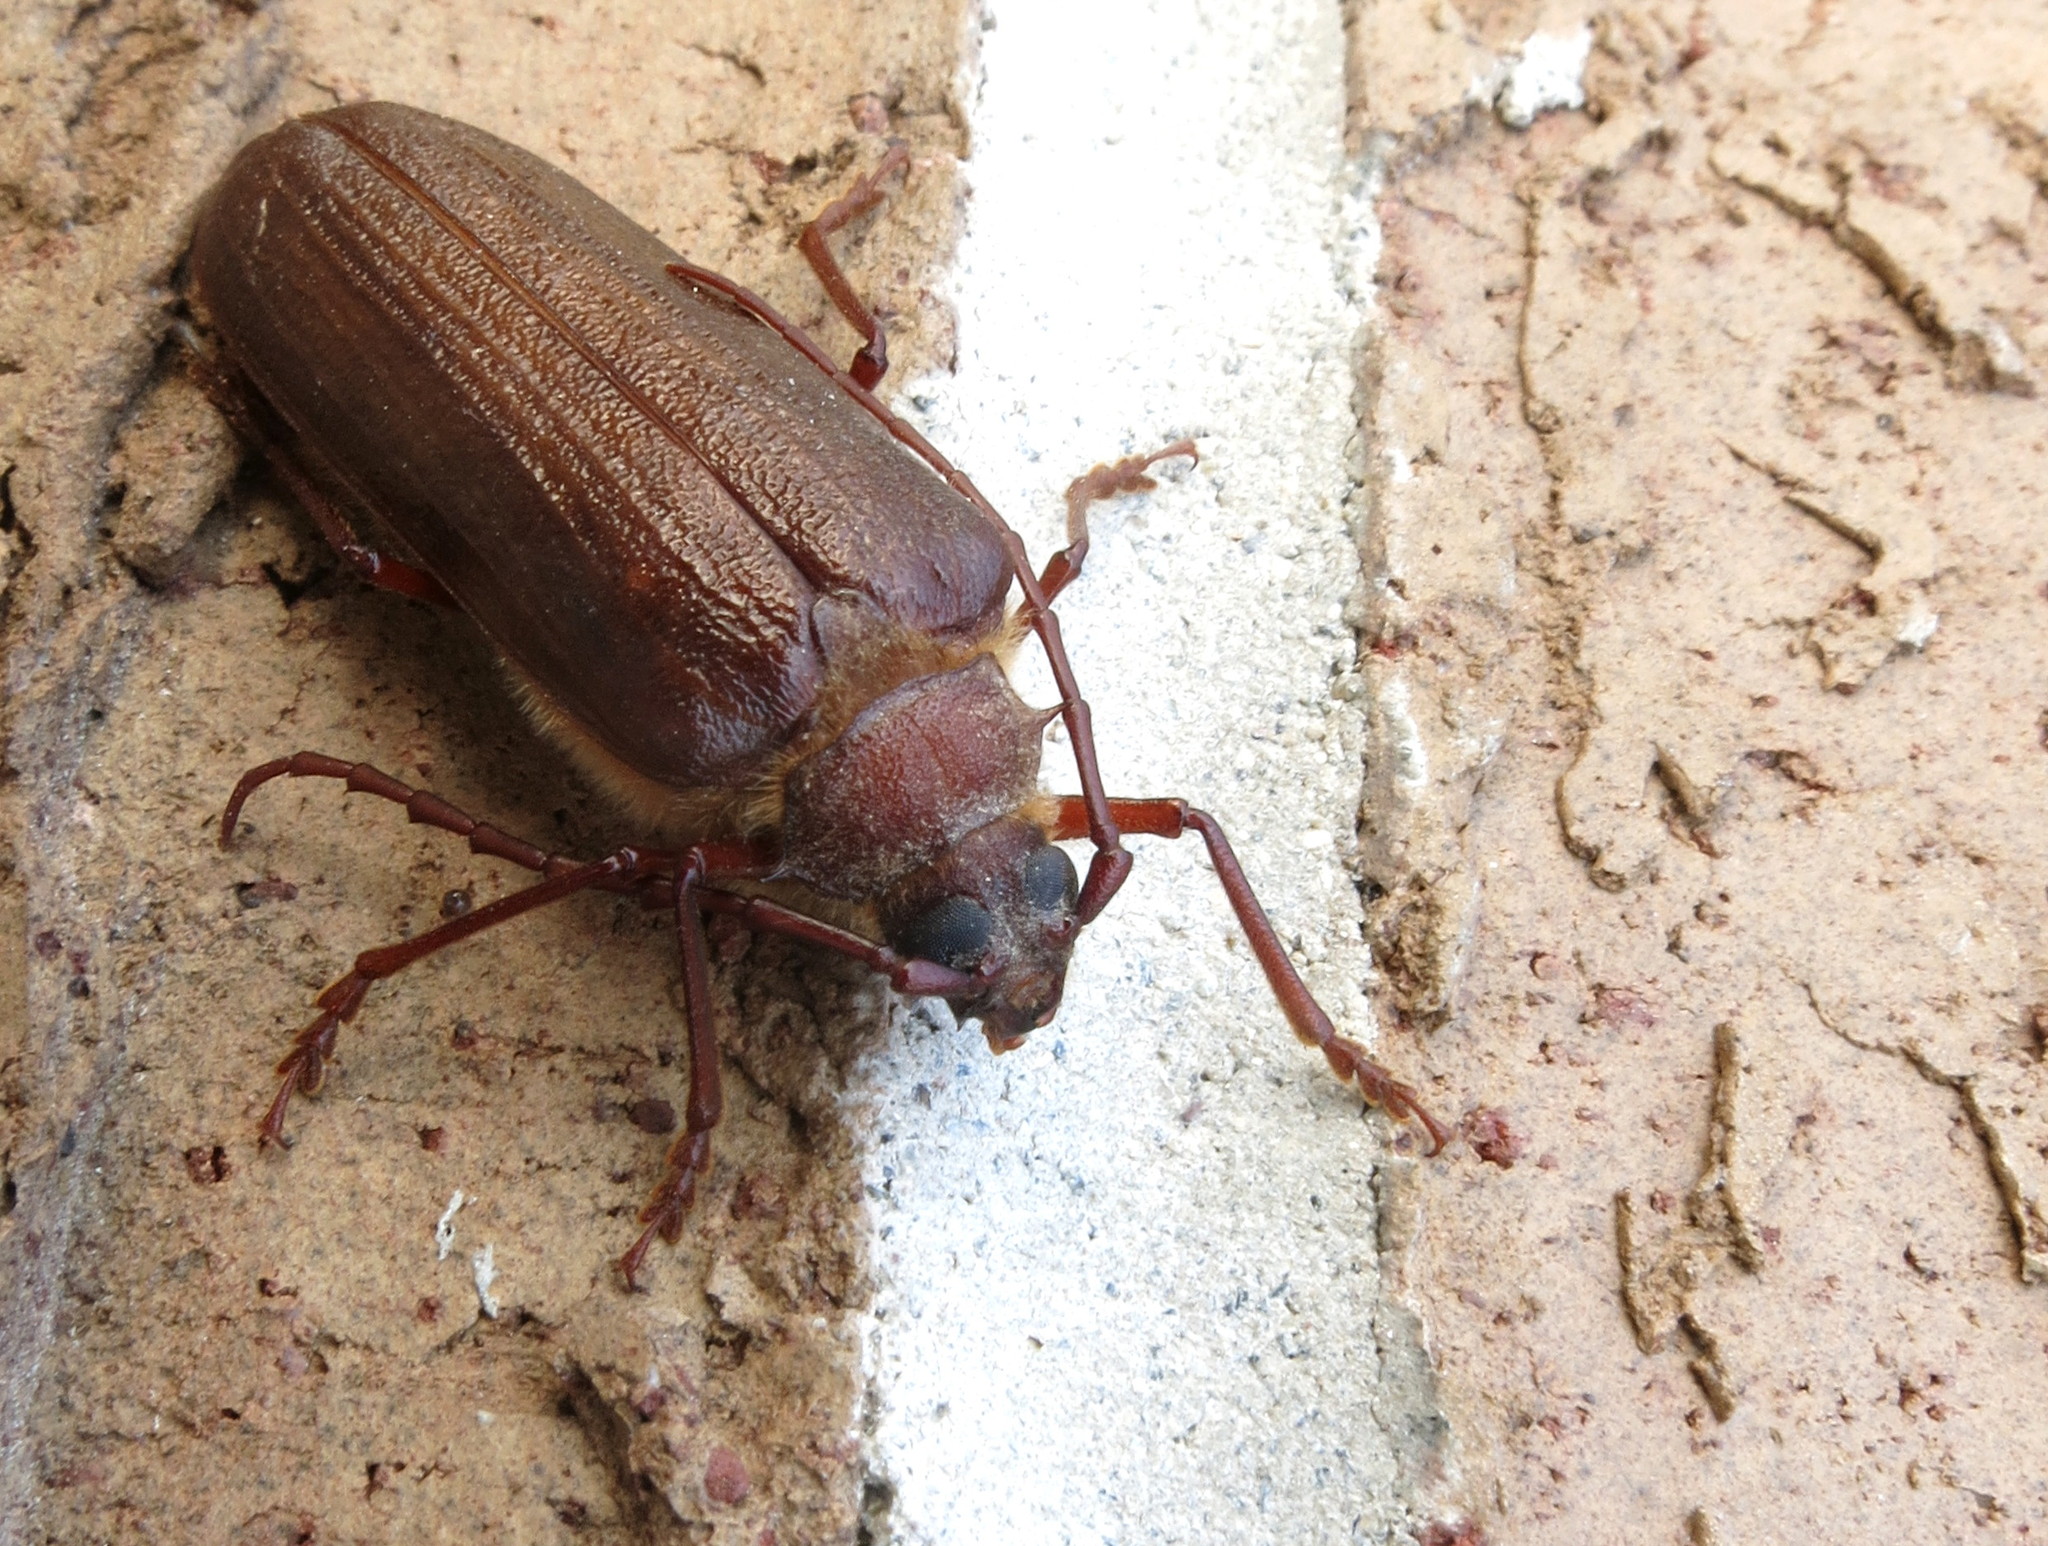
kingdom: Animalia
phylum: Arthropoda
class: Insecta
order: Coleoptera
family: Cerambycidae
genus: Tragosoma
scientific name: Tragosoma harrisii
